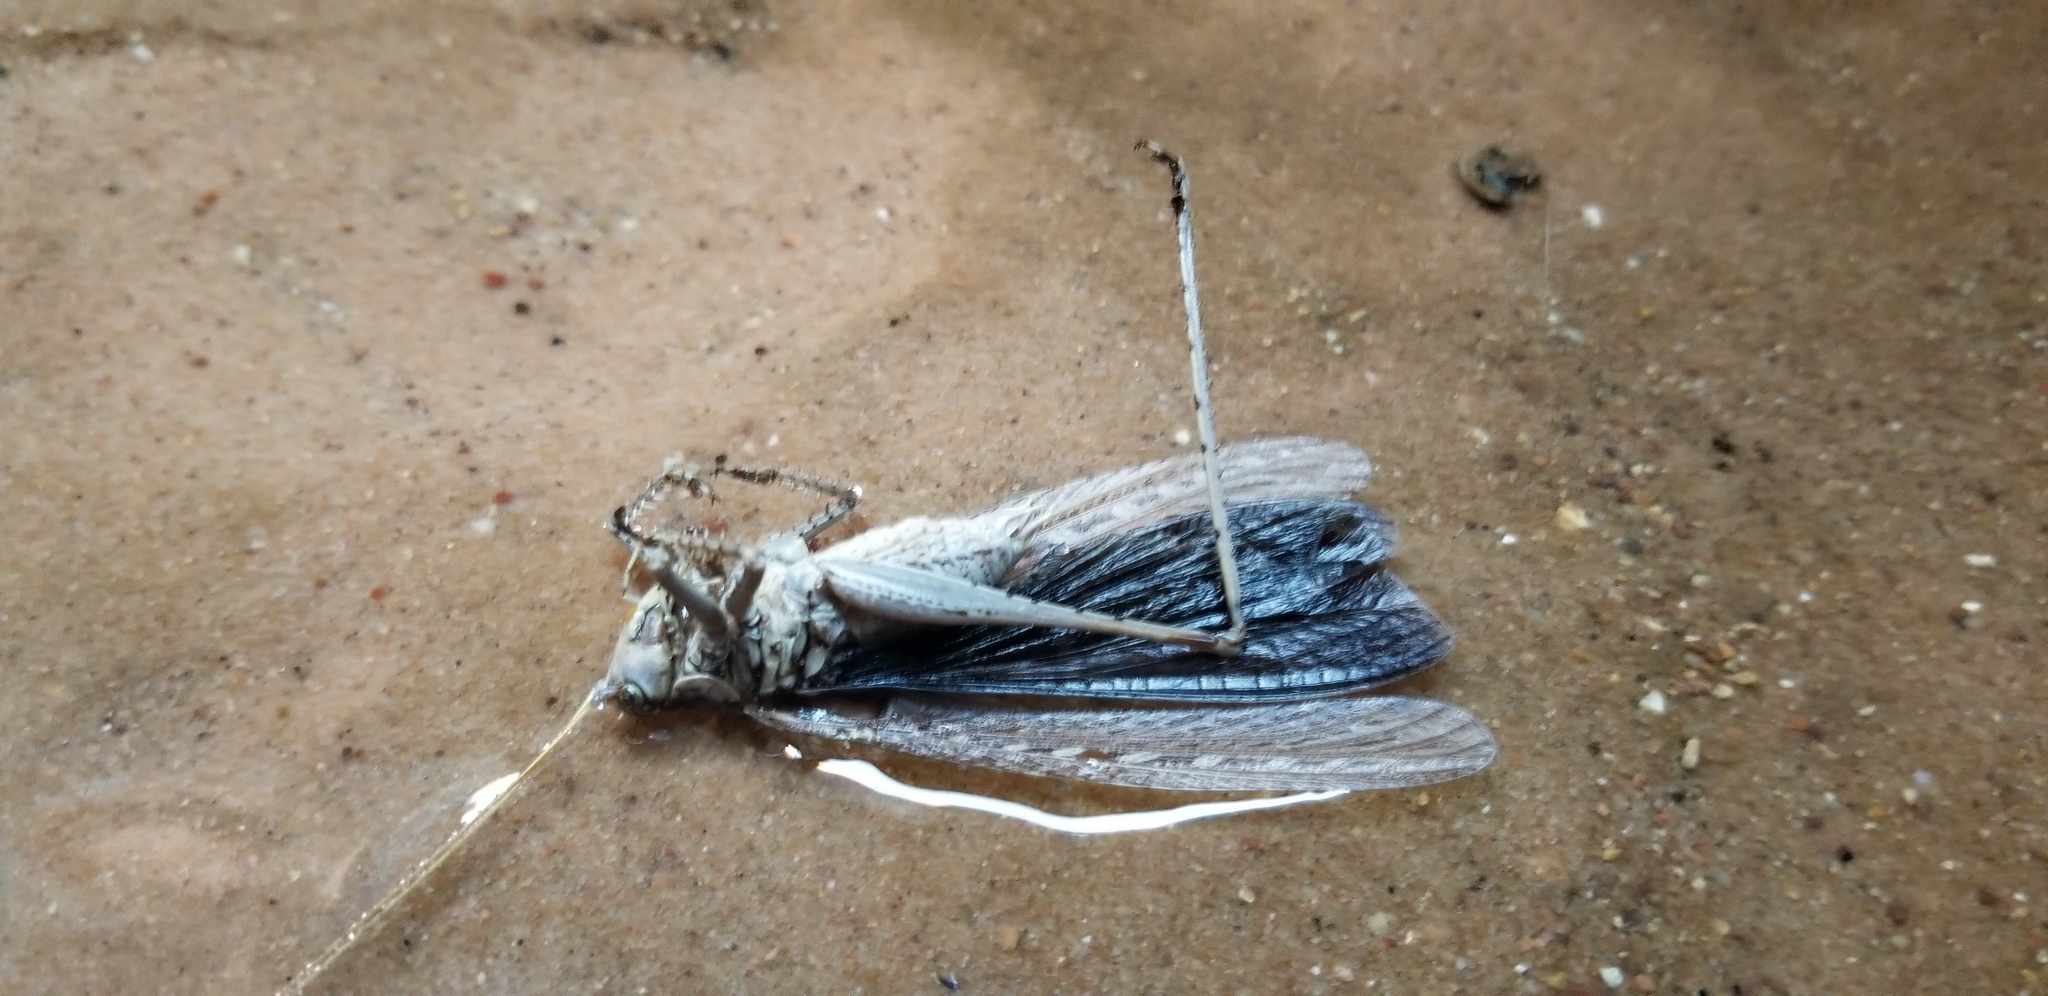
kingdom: Animalia
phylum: Arthropoda
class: Insecta
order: Orthoptera
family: Tettigoniidae
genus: Capnobotes
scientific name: Capnobotes fuliginosus
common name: Sooty longwing
